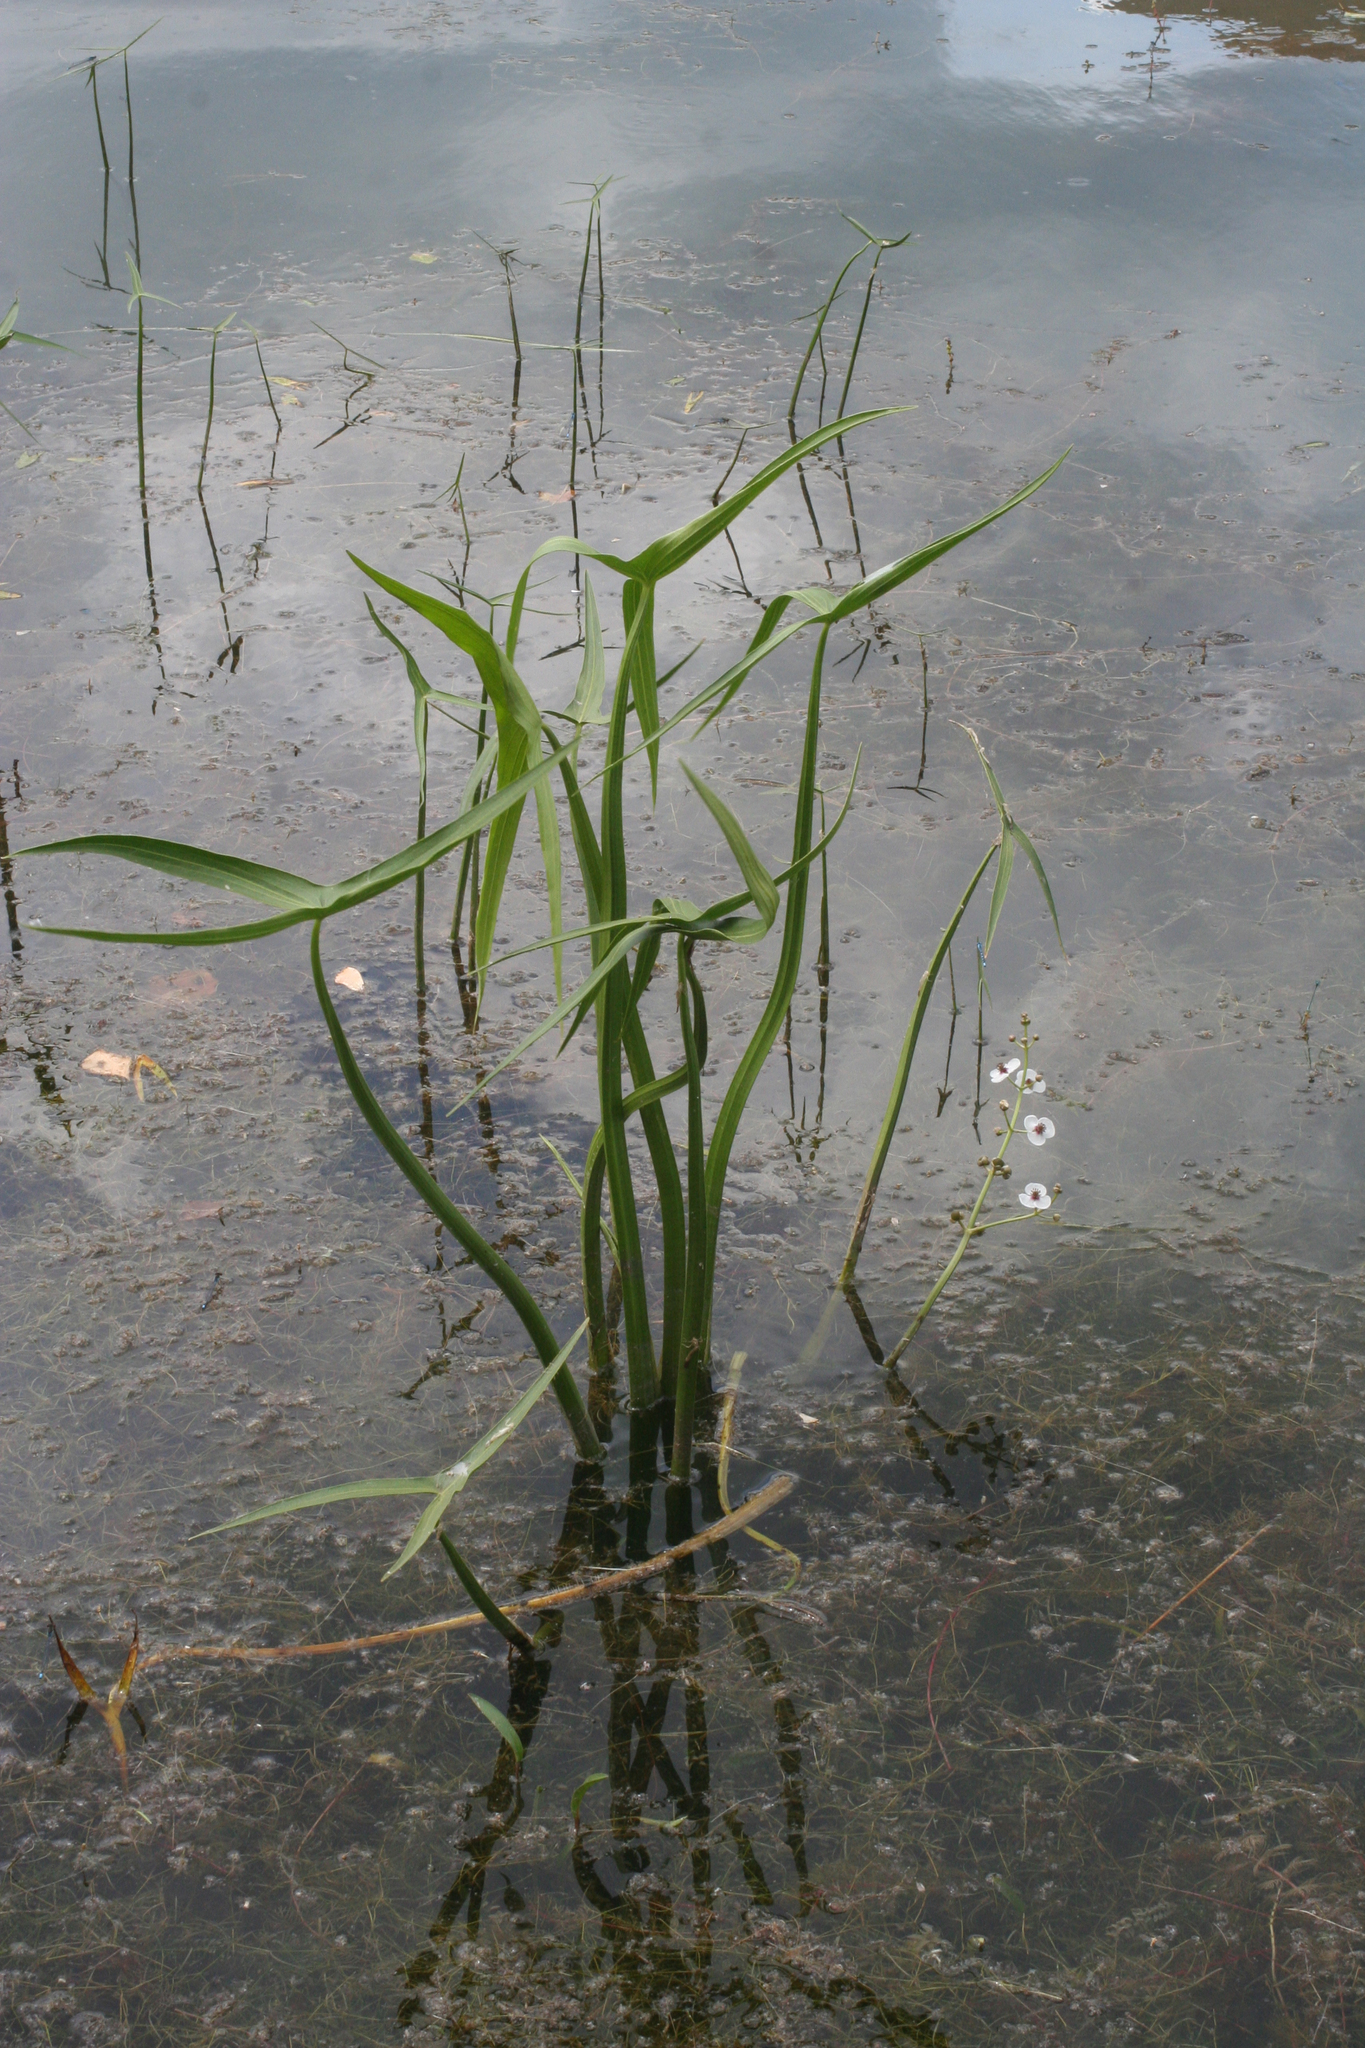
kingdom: Plantae
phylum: Tracheophyta
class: Liliopsida
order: Alismatales
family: Alismataceae
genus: Sagittaria
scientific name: Sagittaria sagittifolia
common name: Arrowhead
